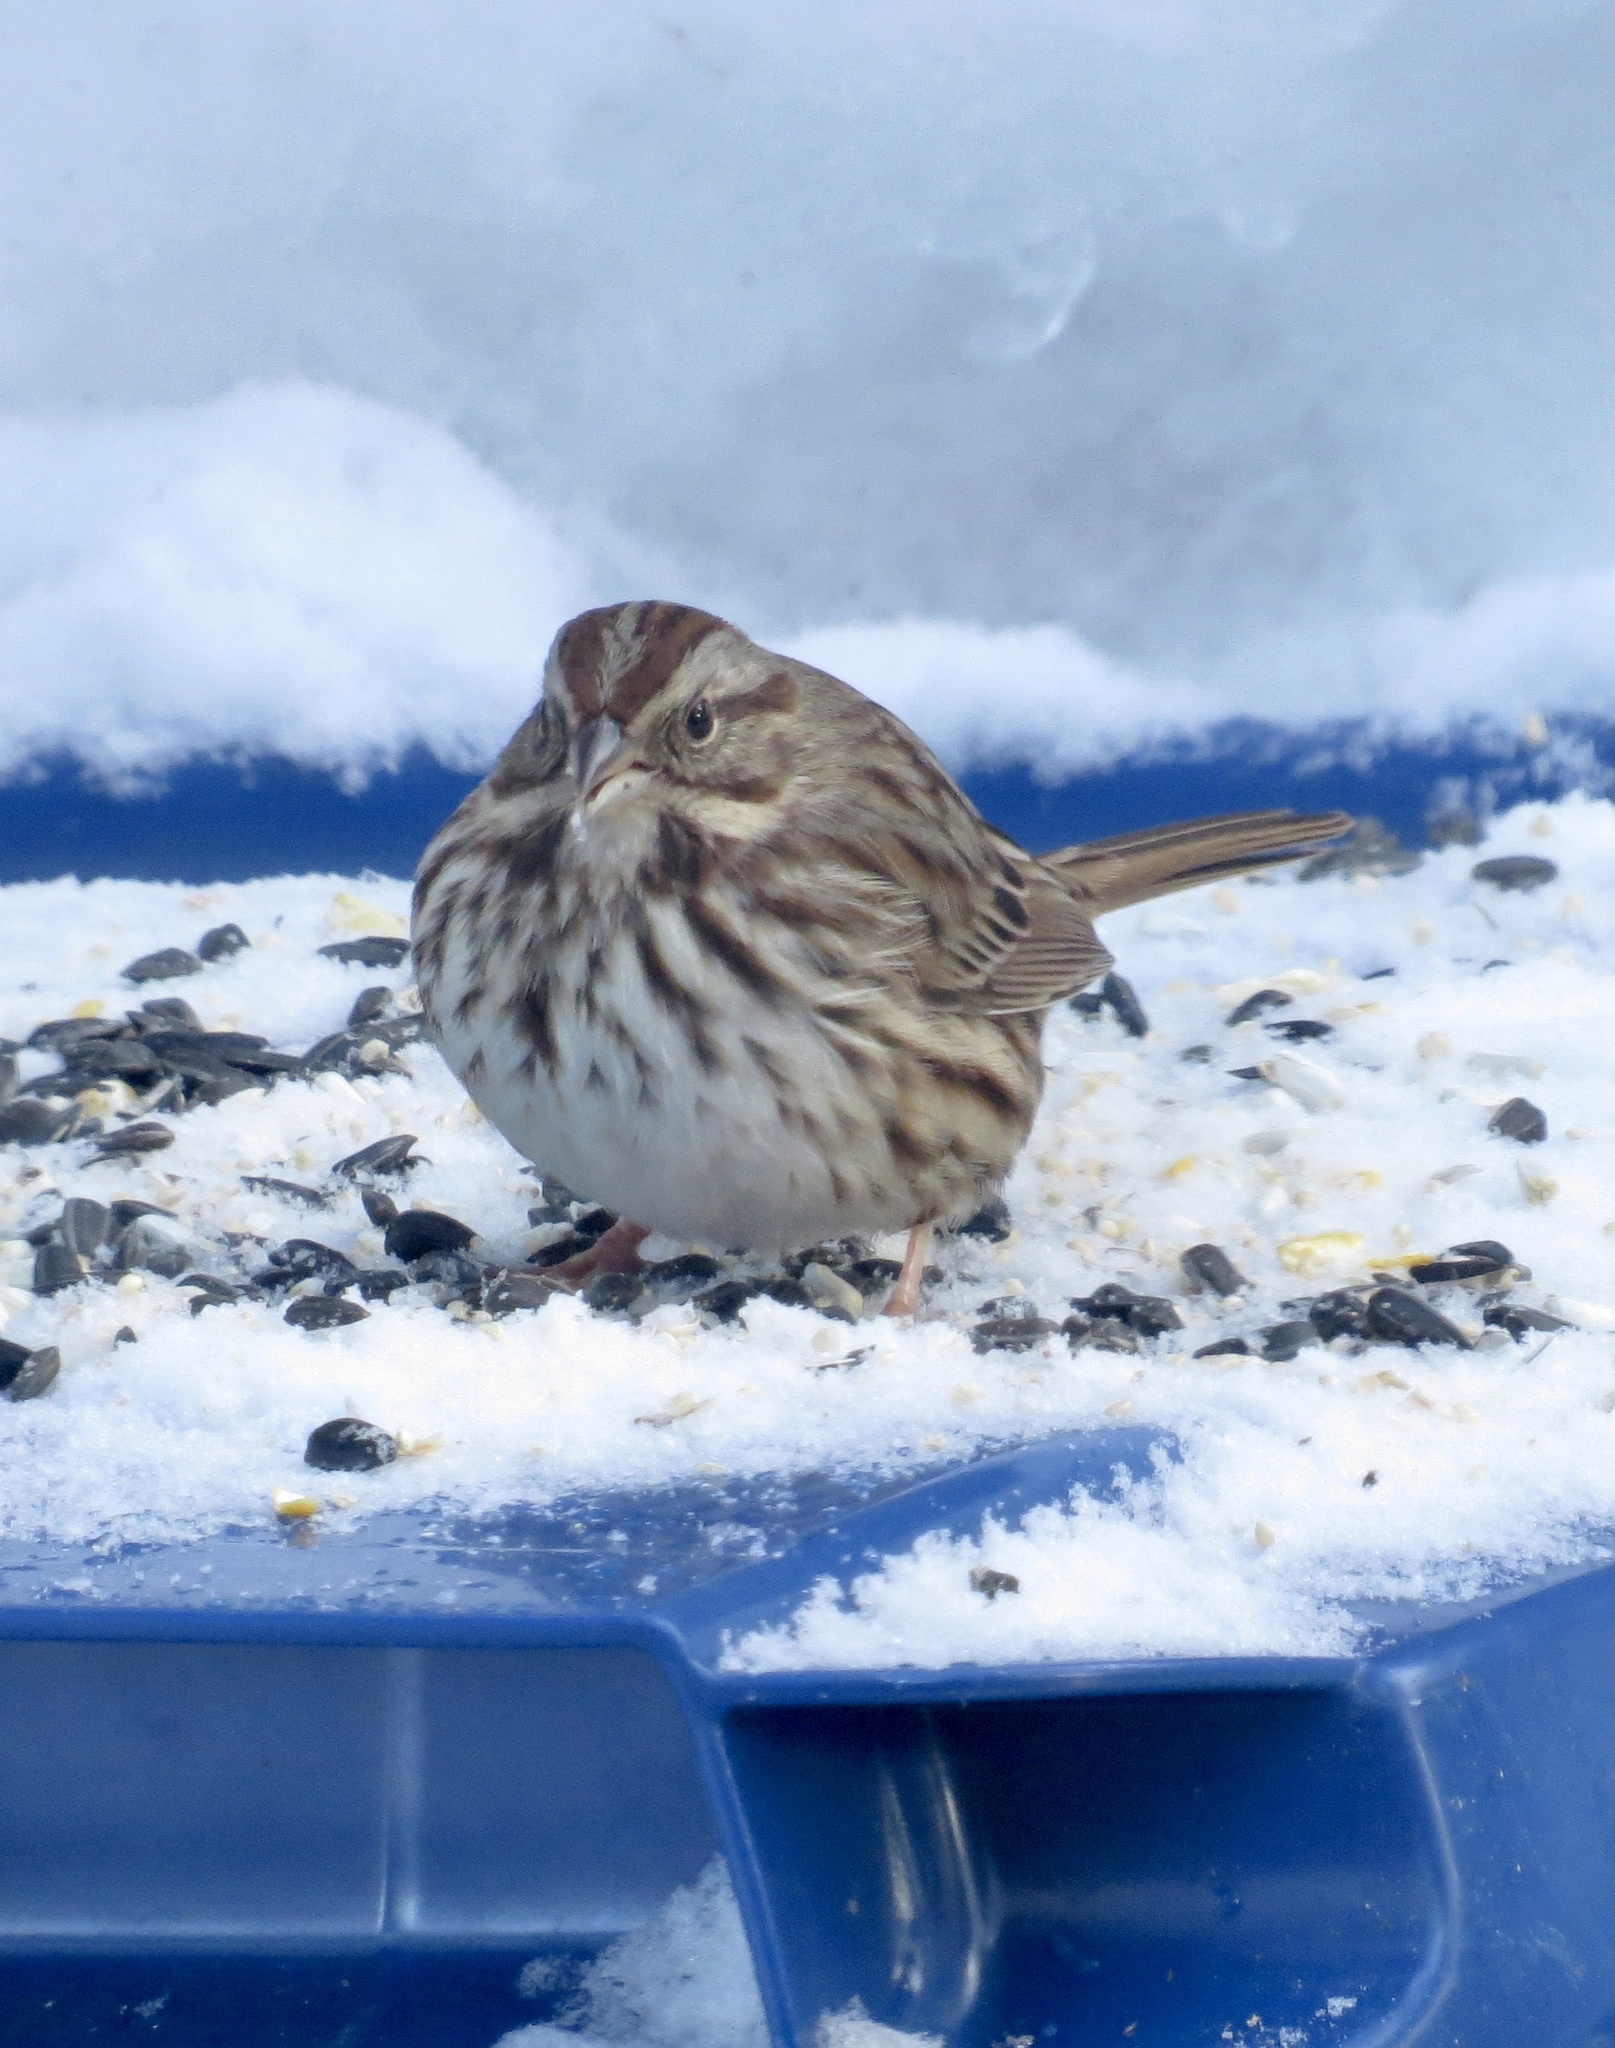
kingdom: Animalia
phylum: Chordata
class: Aves
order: Passeriformes
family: Passerellidae
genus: Melospiza
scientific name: Melospiza melodia
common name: Song sparrow
